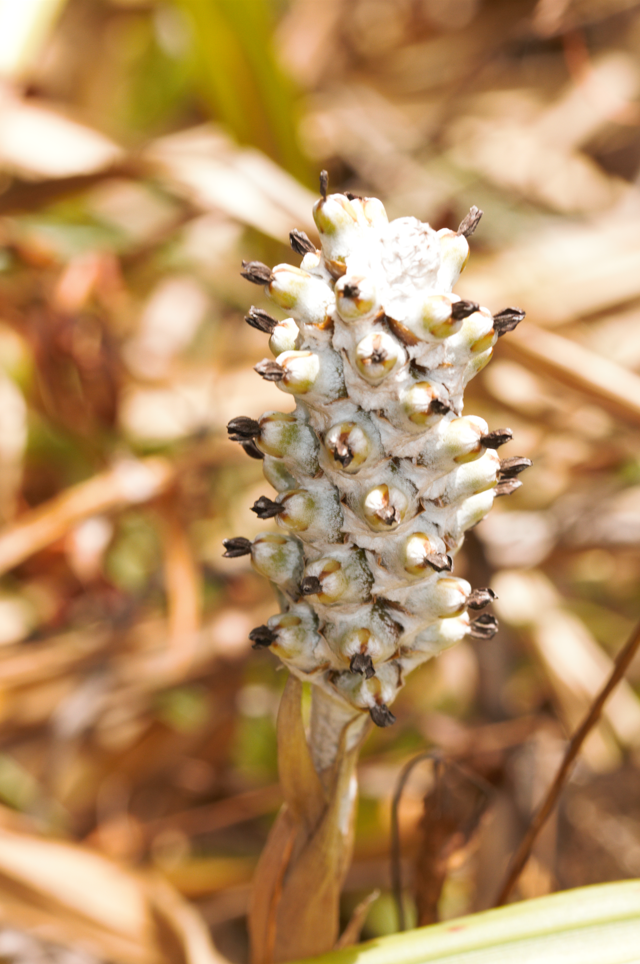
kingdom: Plantae
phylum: Tracheophyta
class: Liliopsida
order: Poales
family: Bromeliaceae
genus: Aechmea
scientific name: Aechmea bromeliifolia
